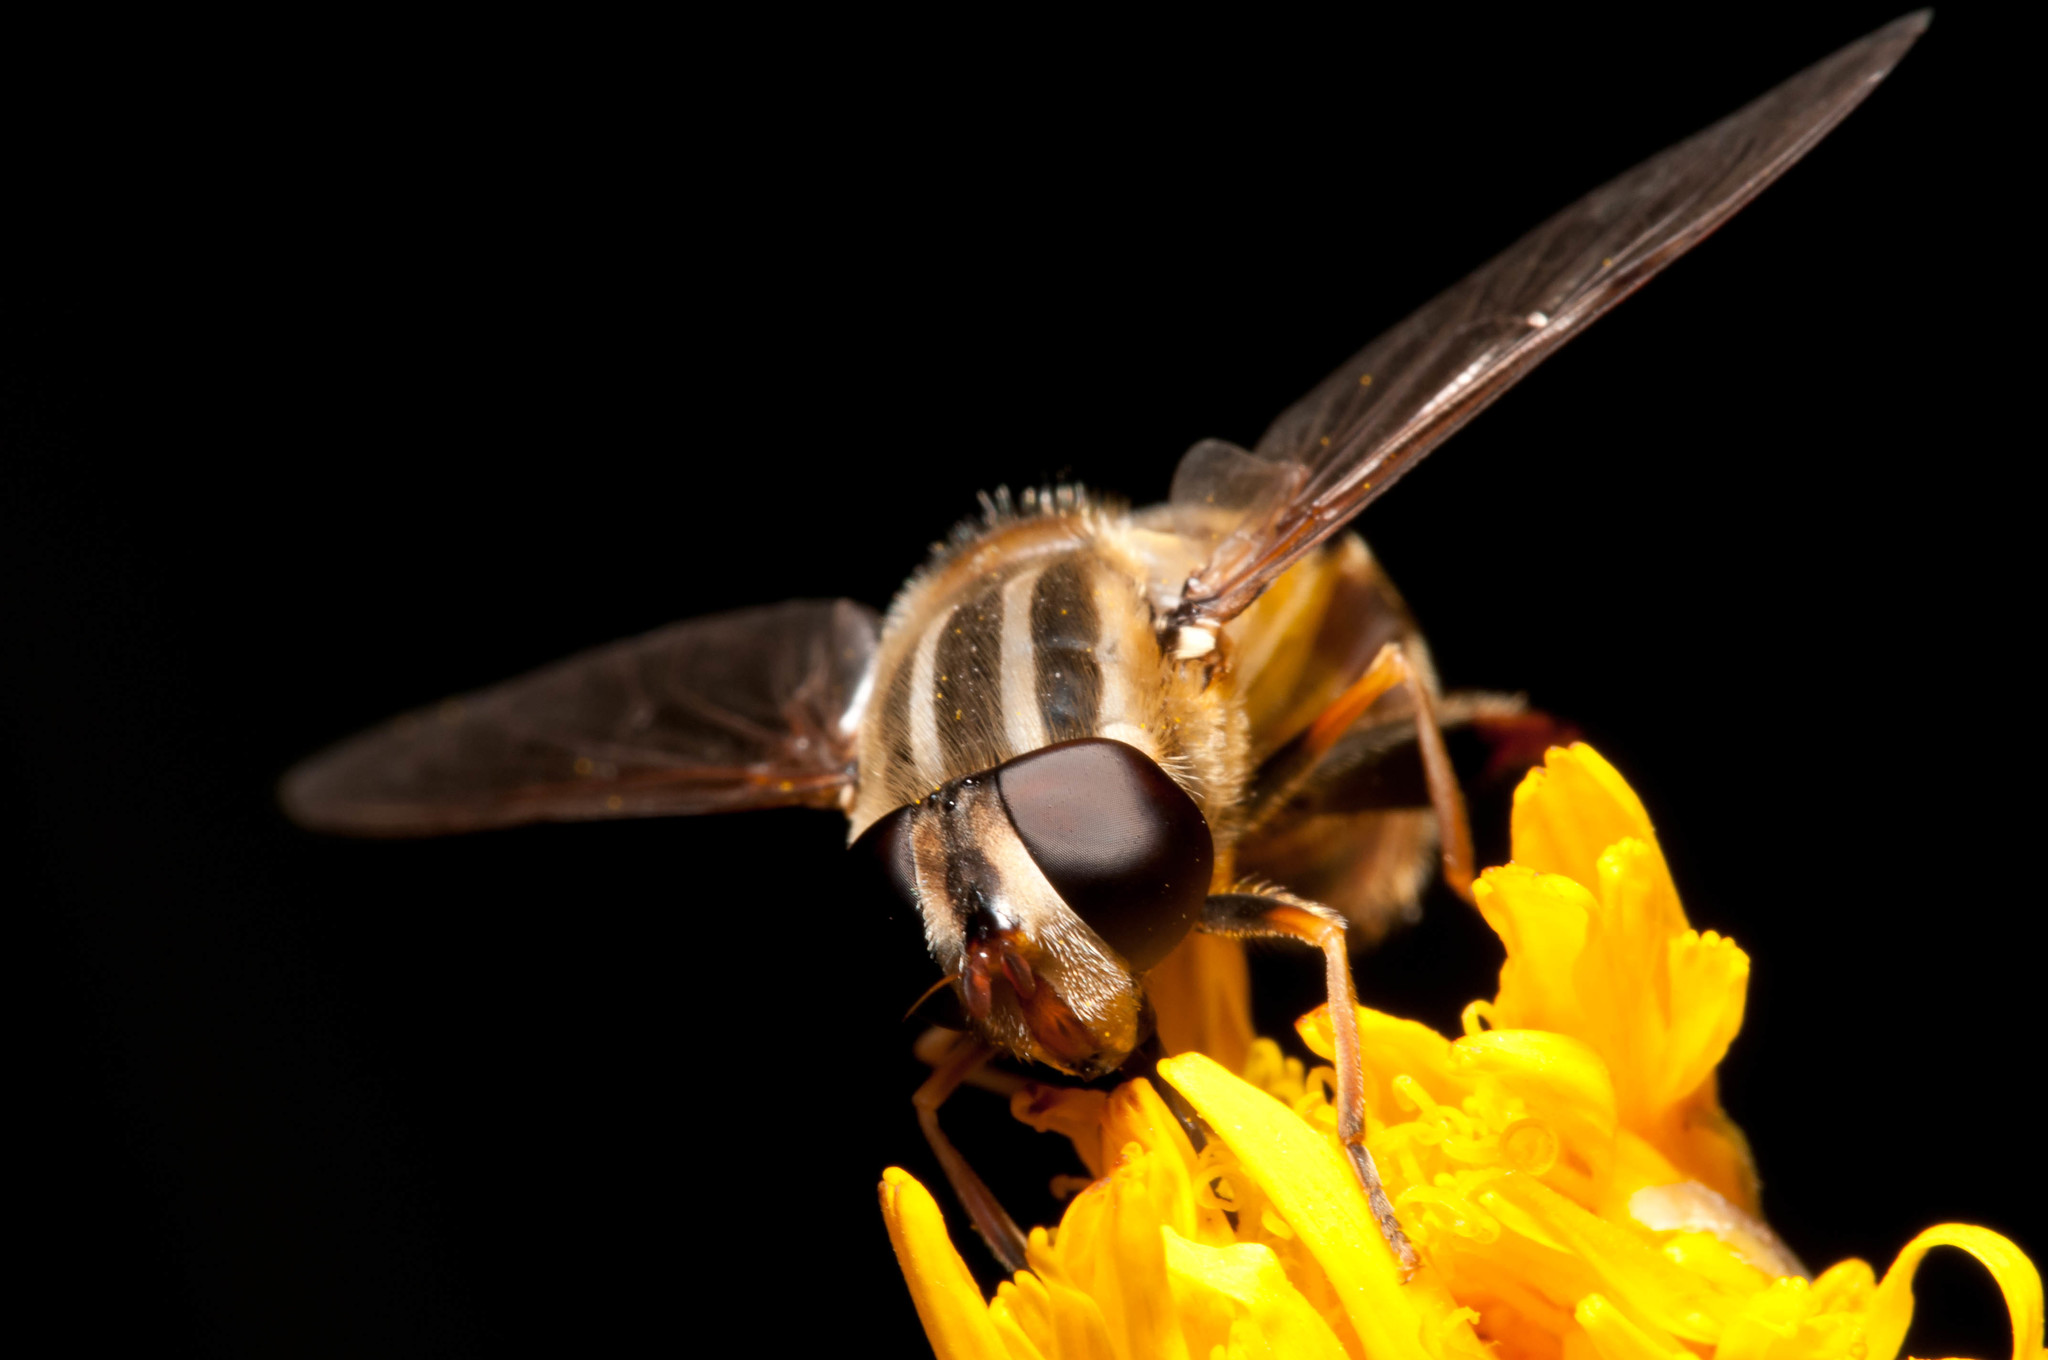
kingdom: Animalia
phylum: Arthropoda
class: Insecta
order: Diptera
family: Syrphidae
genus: Helophilus
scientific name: Helophilus fasciatus
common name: Narrow-headed marsh fly
